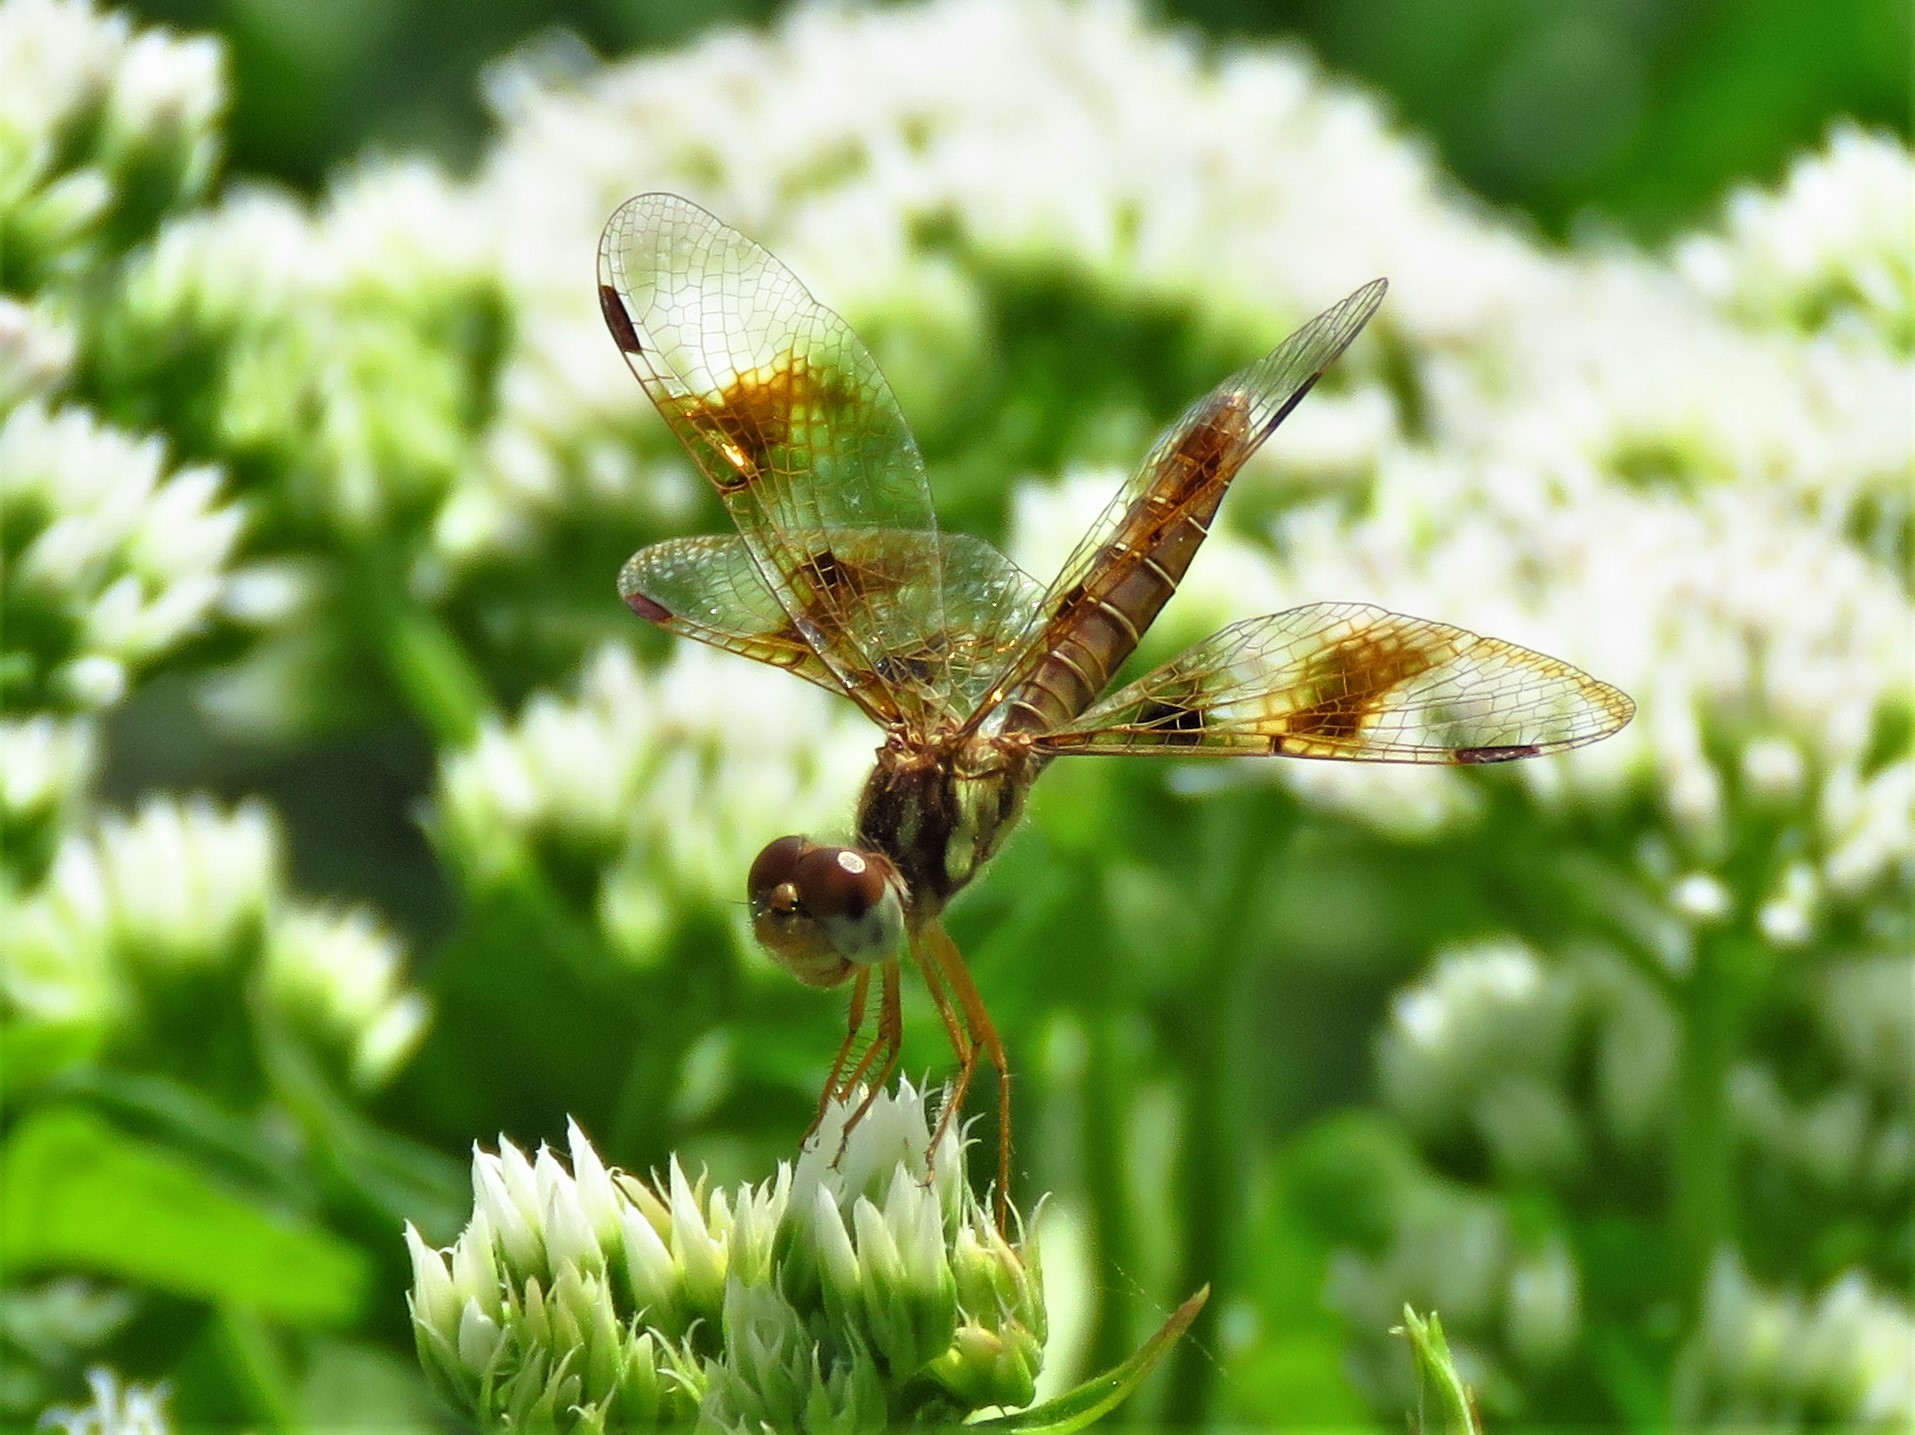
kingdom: Animalia
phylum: Arthropoda
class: Insecta
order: Odonata
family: Libellulidae
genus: Perithemis
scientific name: Perithemis tenera
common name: Eastern amberwing
